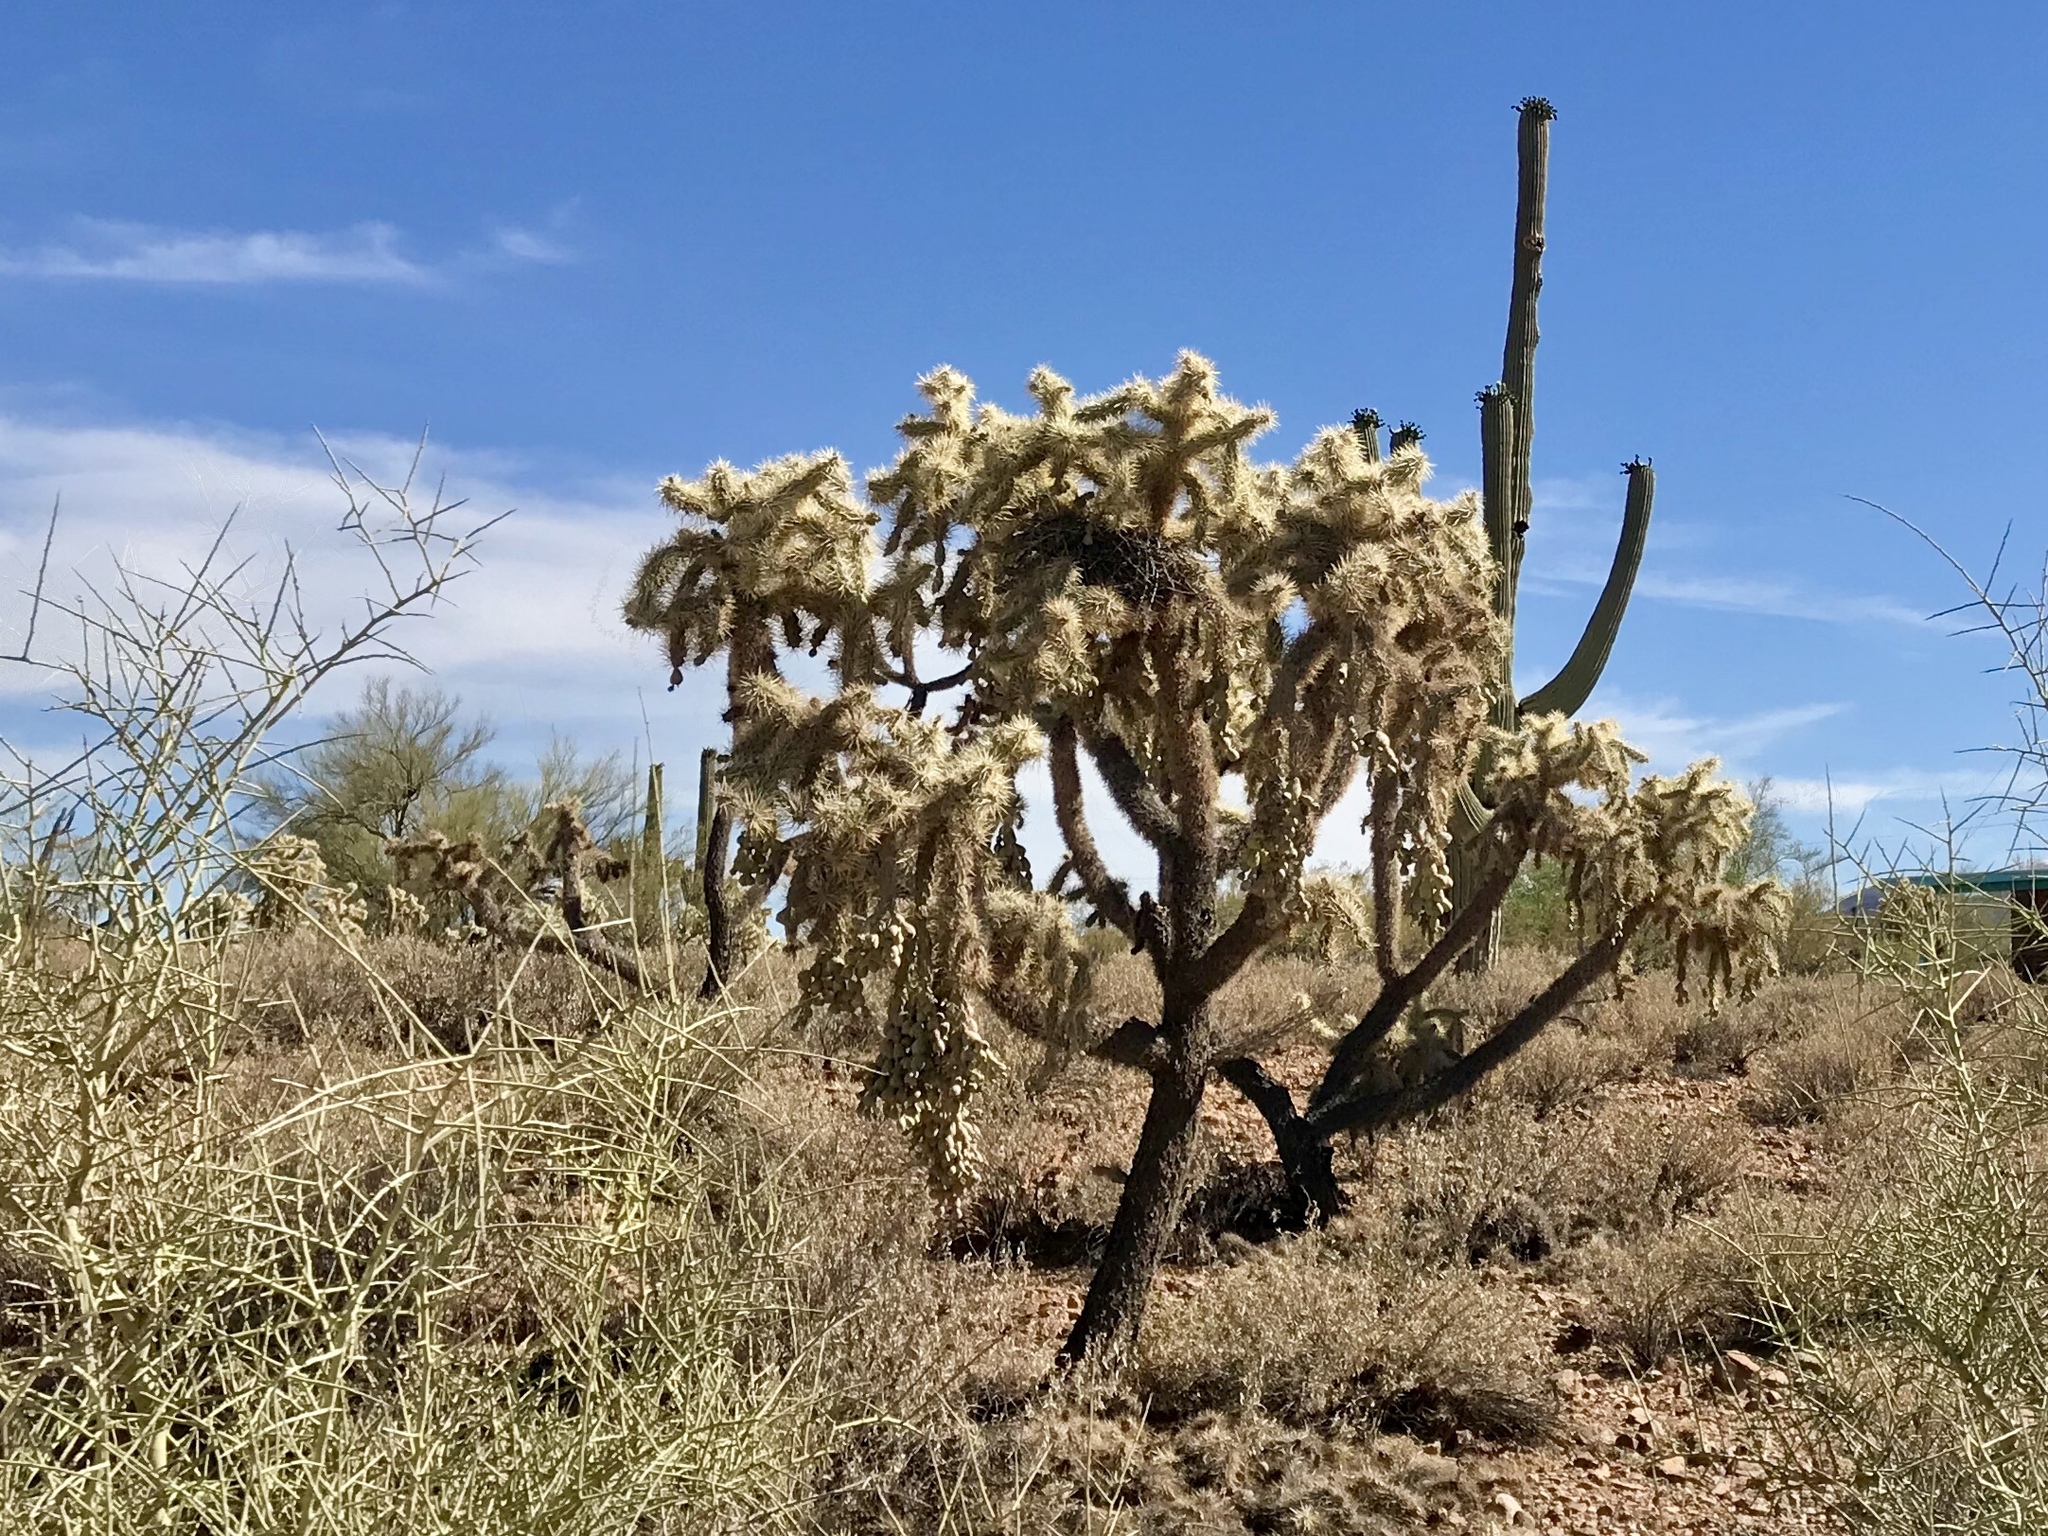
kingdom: Plantae
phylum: Tracheophyta
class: Magnoliopsida
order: Caryophyllales
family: Cactaceae
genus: Cylindropuntia
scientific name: Cylindropuntia fulgida
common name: Jumping cholla
